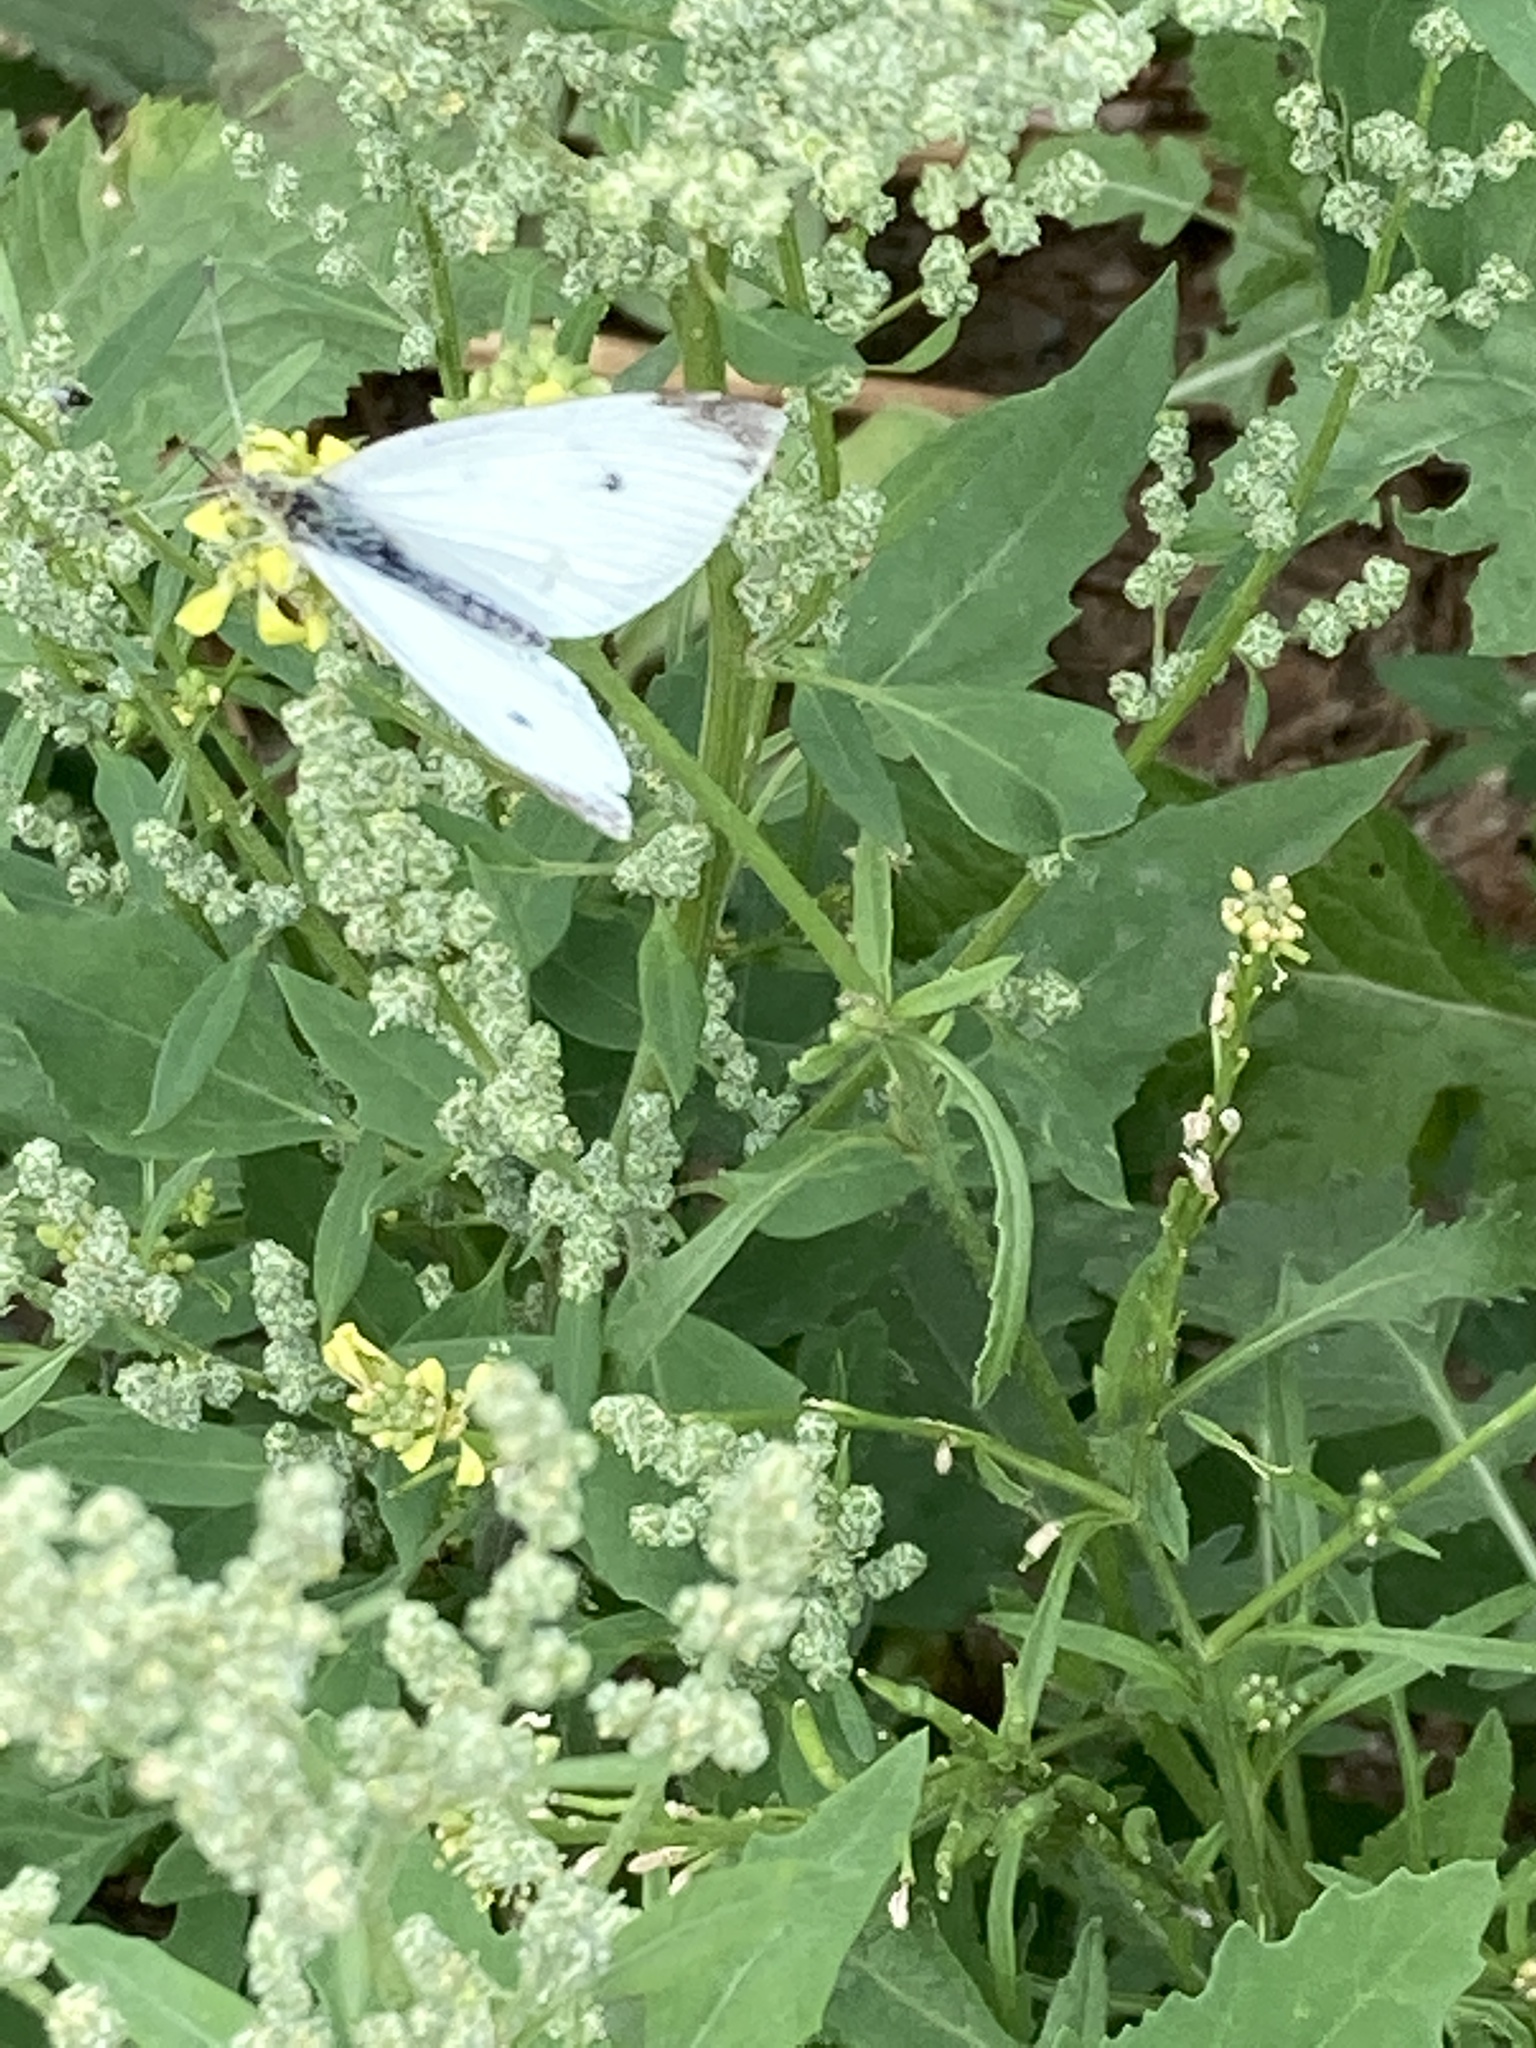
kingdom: Animalia
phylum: Arthropoda
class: Insecta
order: Lepidoptera
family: Pieridae
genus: Pieris
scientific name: Pieris rapae
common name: Small white
